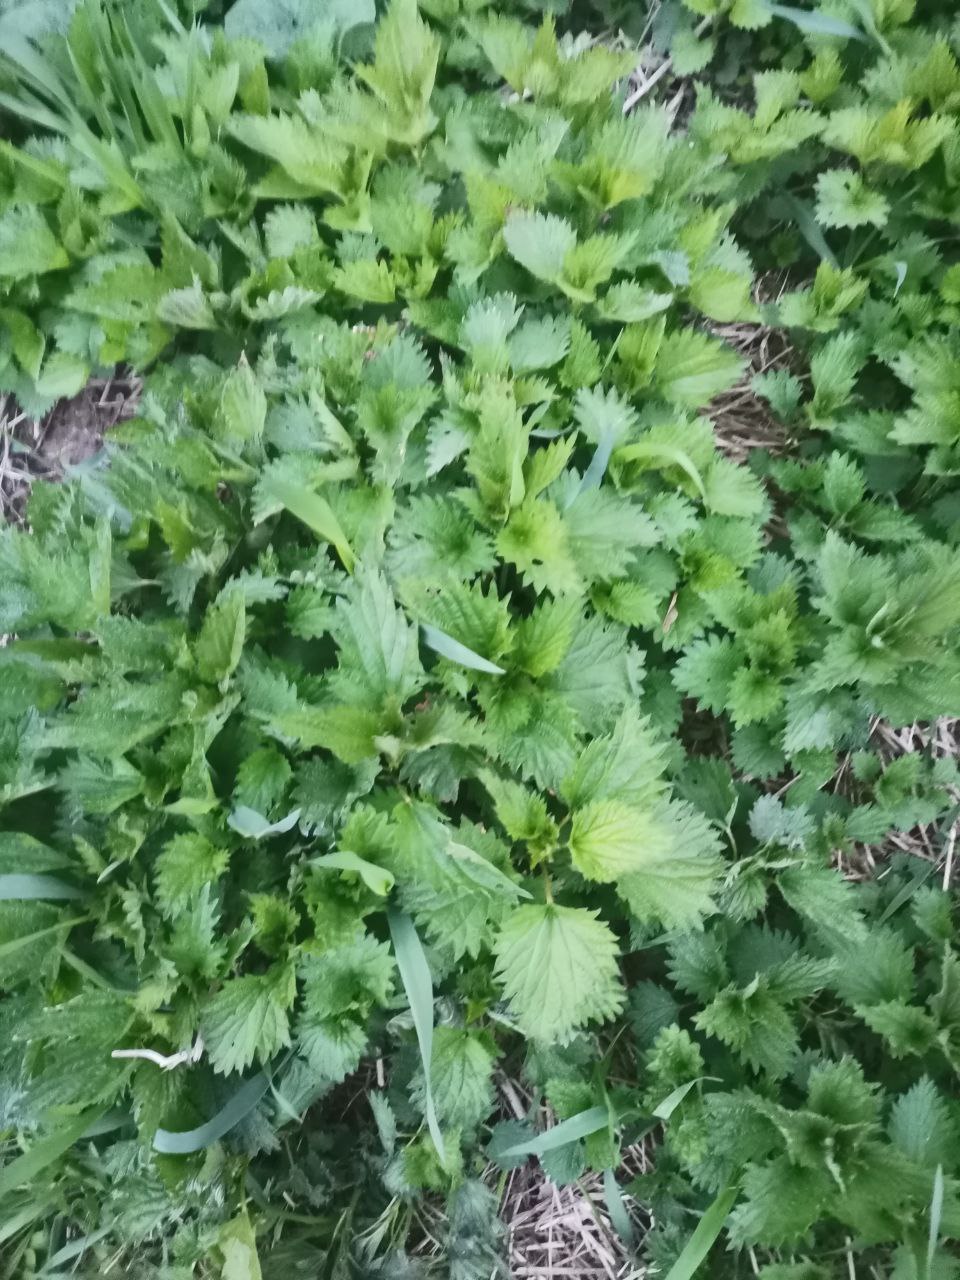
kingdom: Plantae
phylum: Tracheophyta
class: Magnoliopsida
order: Rosales
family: Urticaceae
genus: Urtica
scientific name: Urtica dioica
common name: Common nettle
